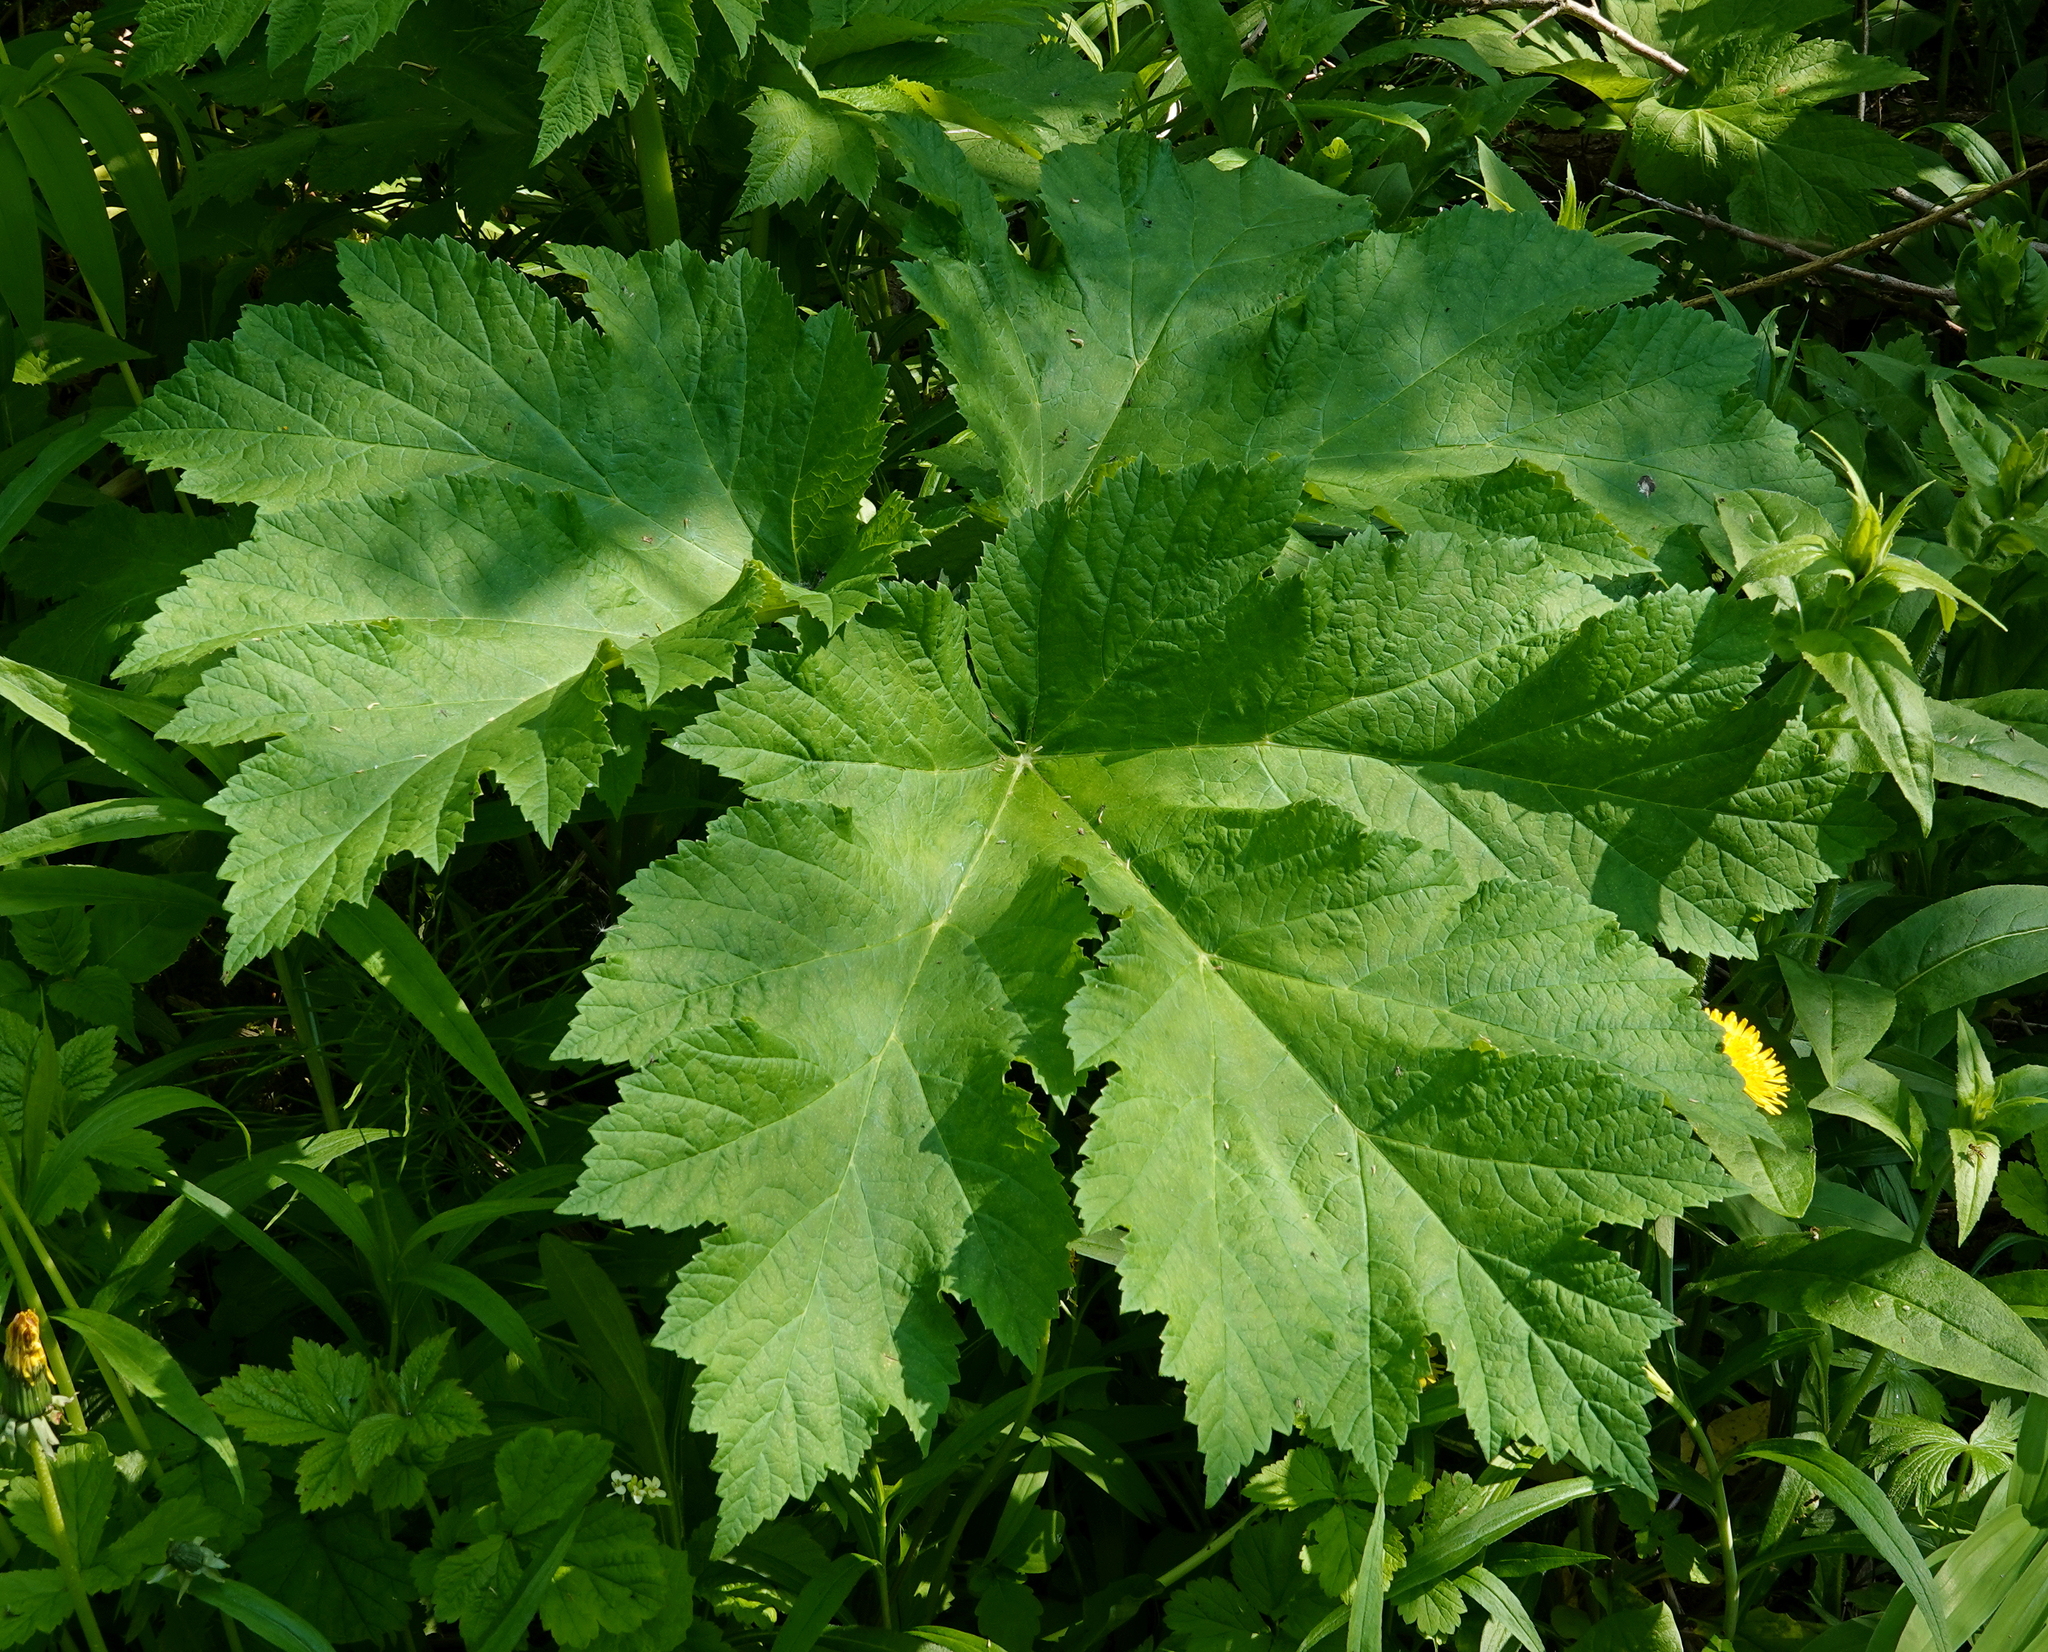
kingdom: Plantae
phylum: Tracheophyta
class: Magnoliopsida
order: Apiales
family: Apiaceae
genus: Heracleum
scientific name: Heracleum maximum
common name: American cow parsnip
